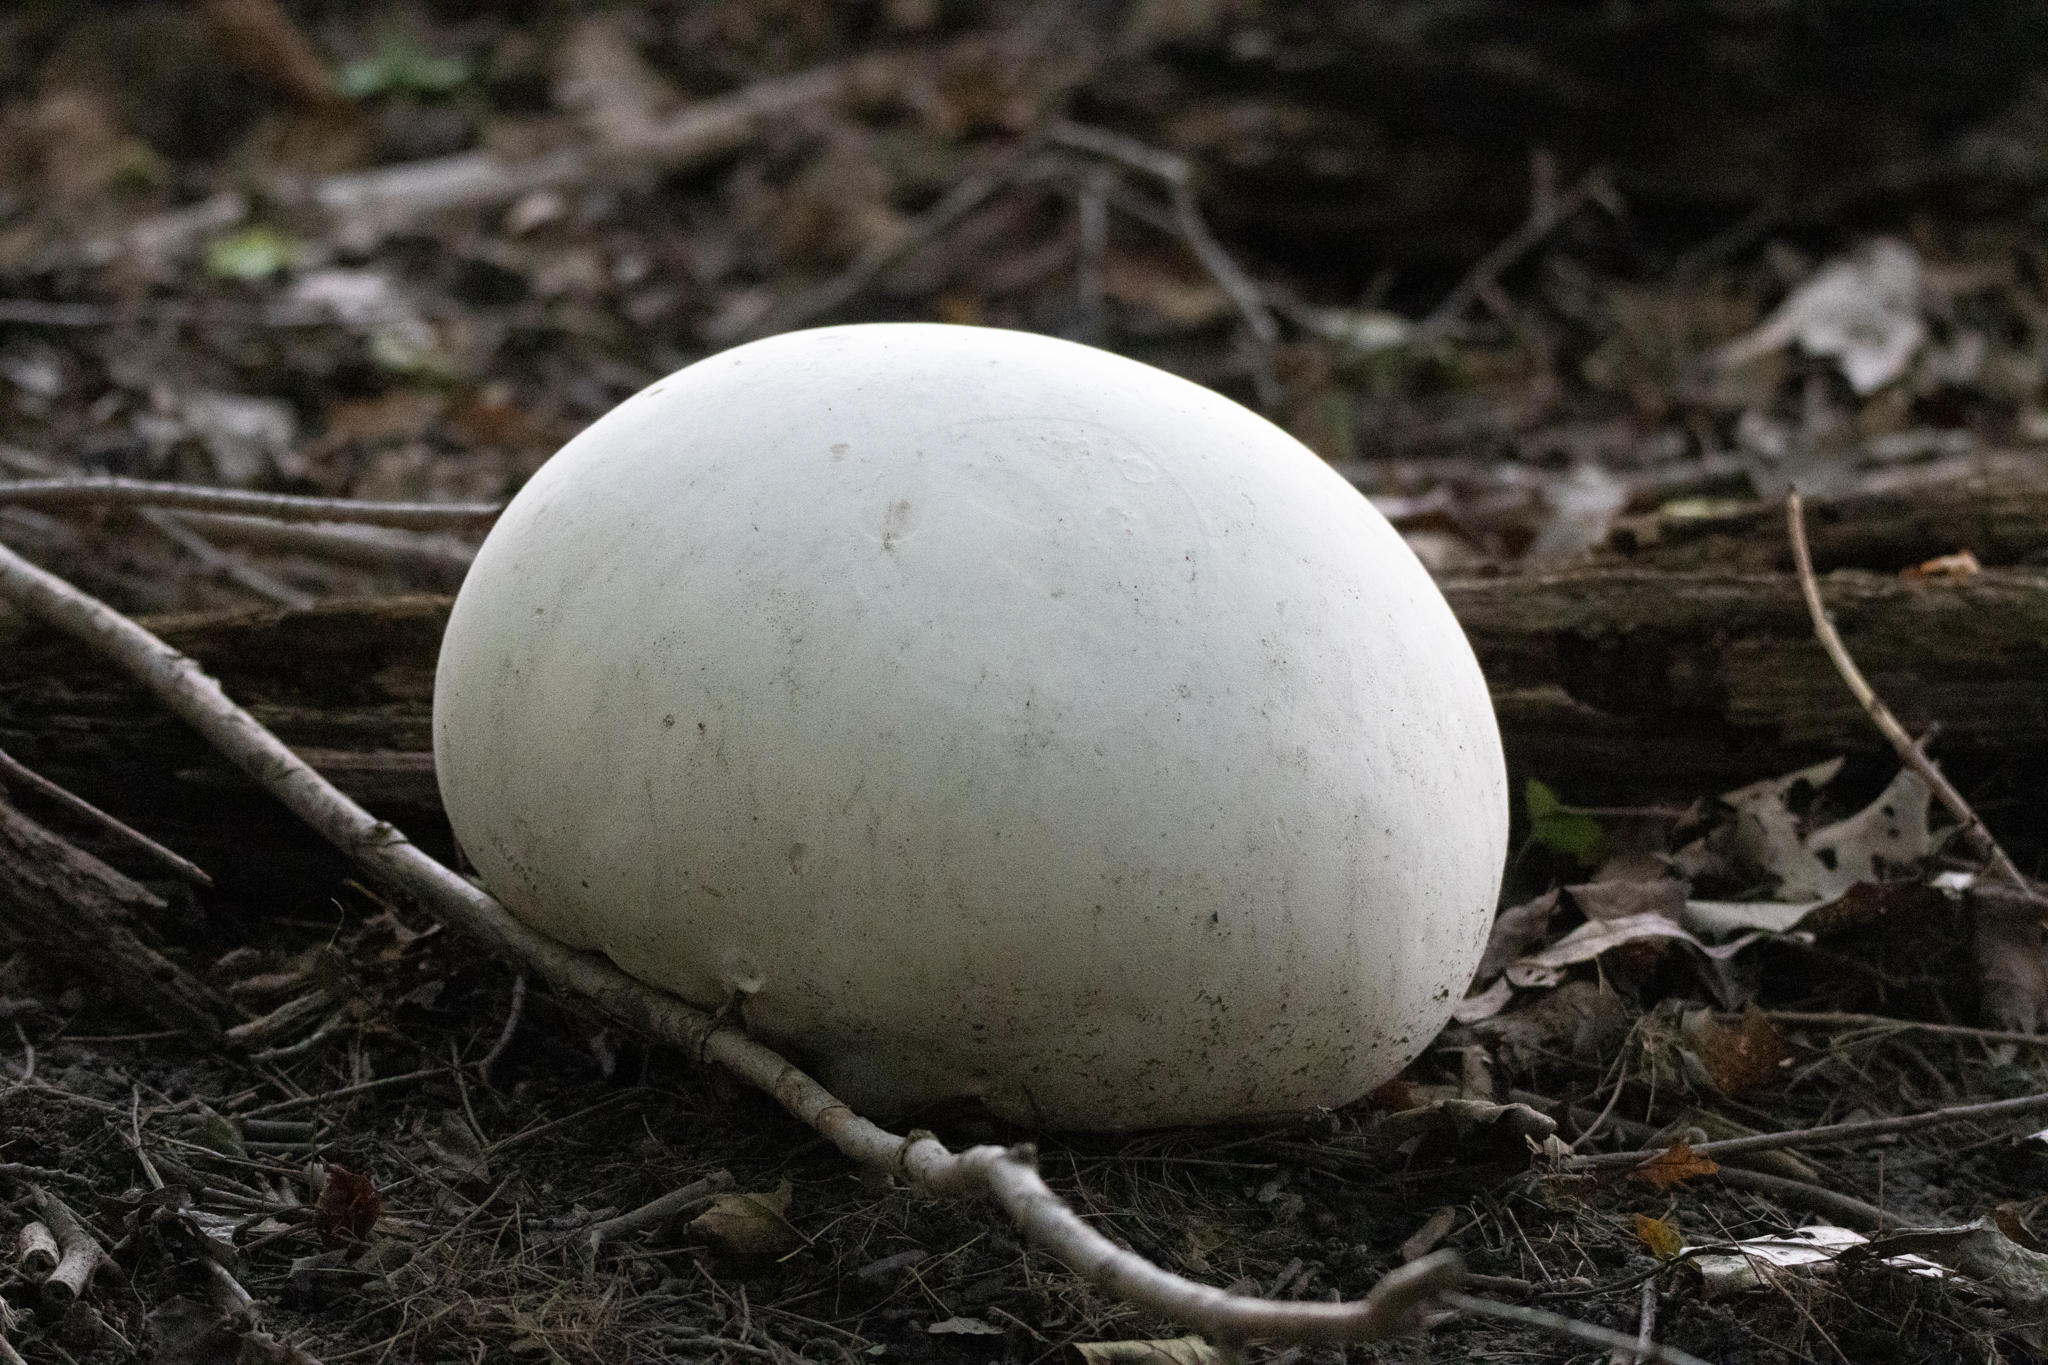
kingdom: Fungi
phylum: Basidiomycota
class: Agaricomycetes
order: Agaricales
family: Lycoperdaceae
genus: Calvatia
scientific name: Calvatia gigantea
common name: Giant puffball
